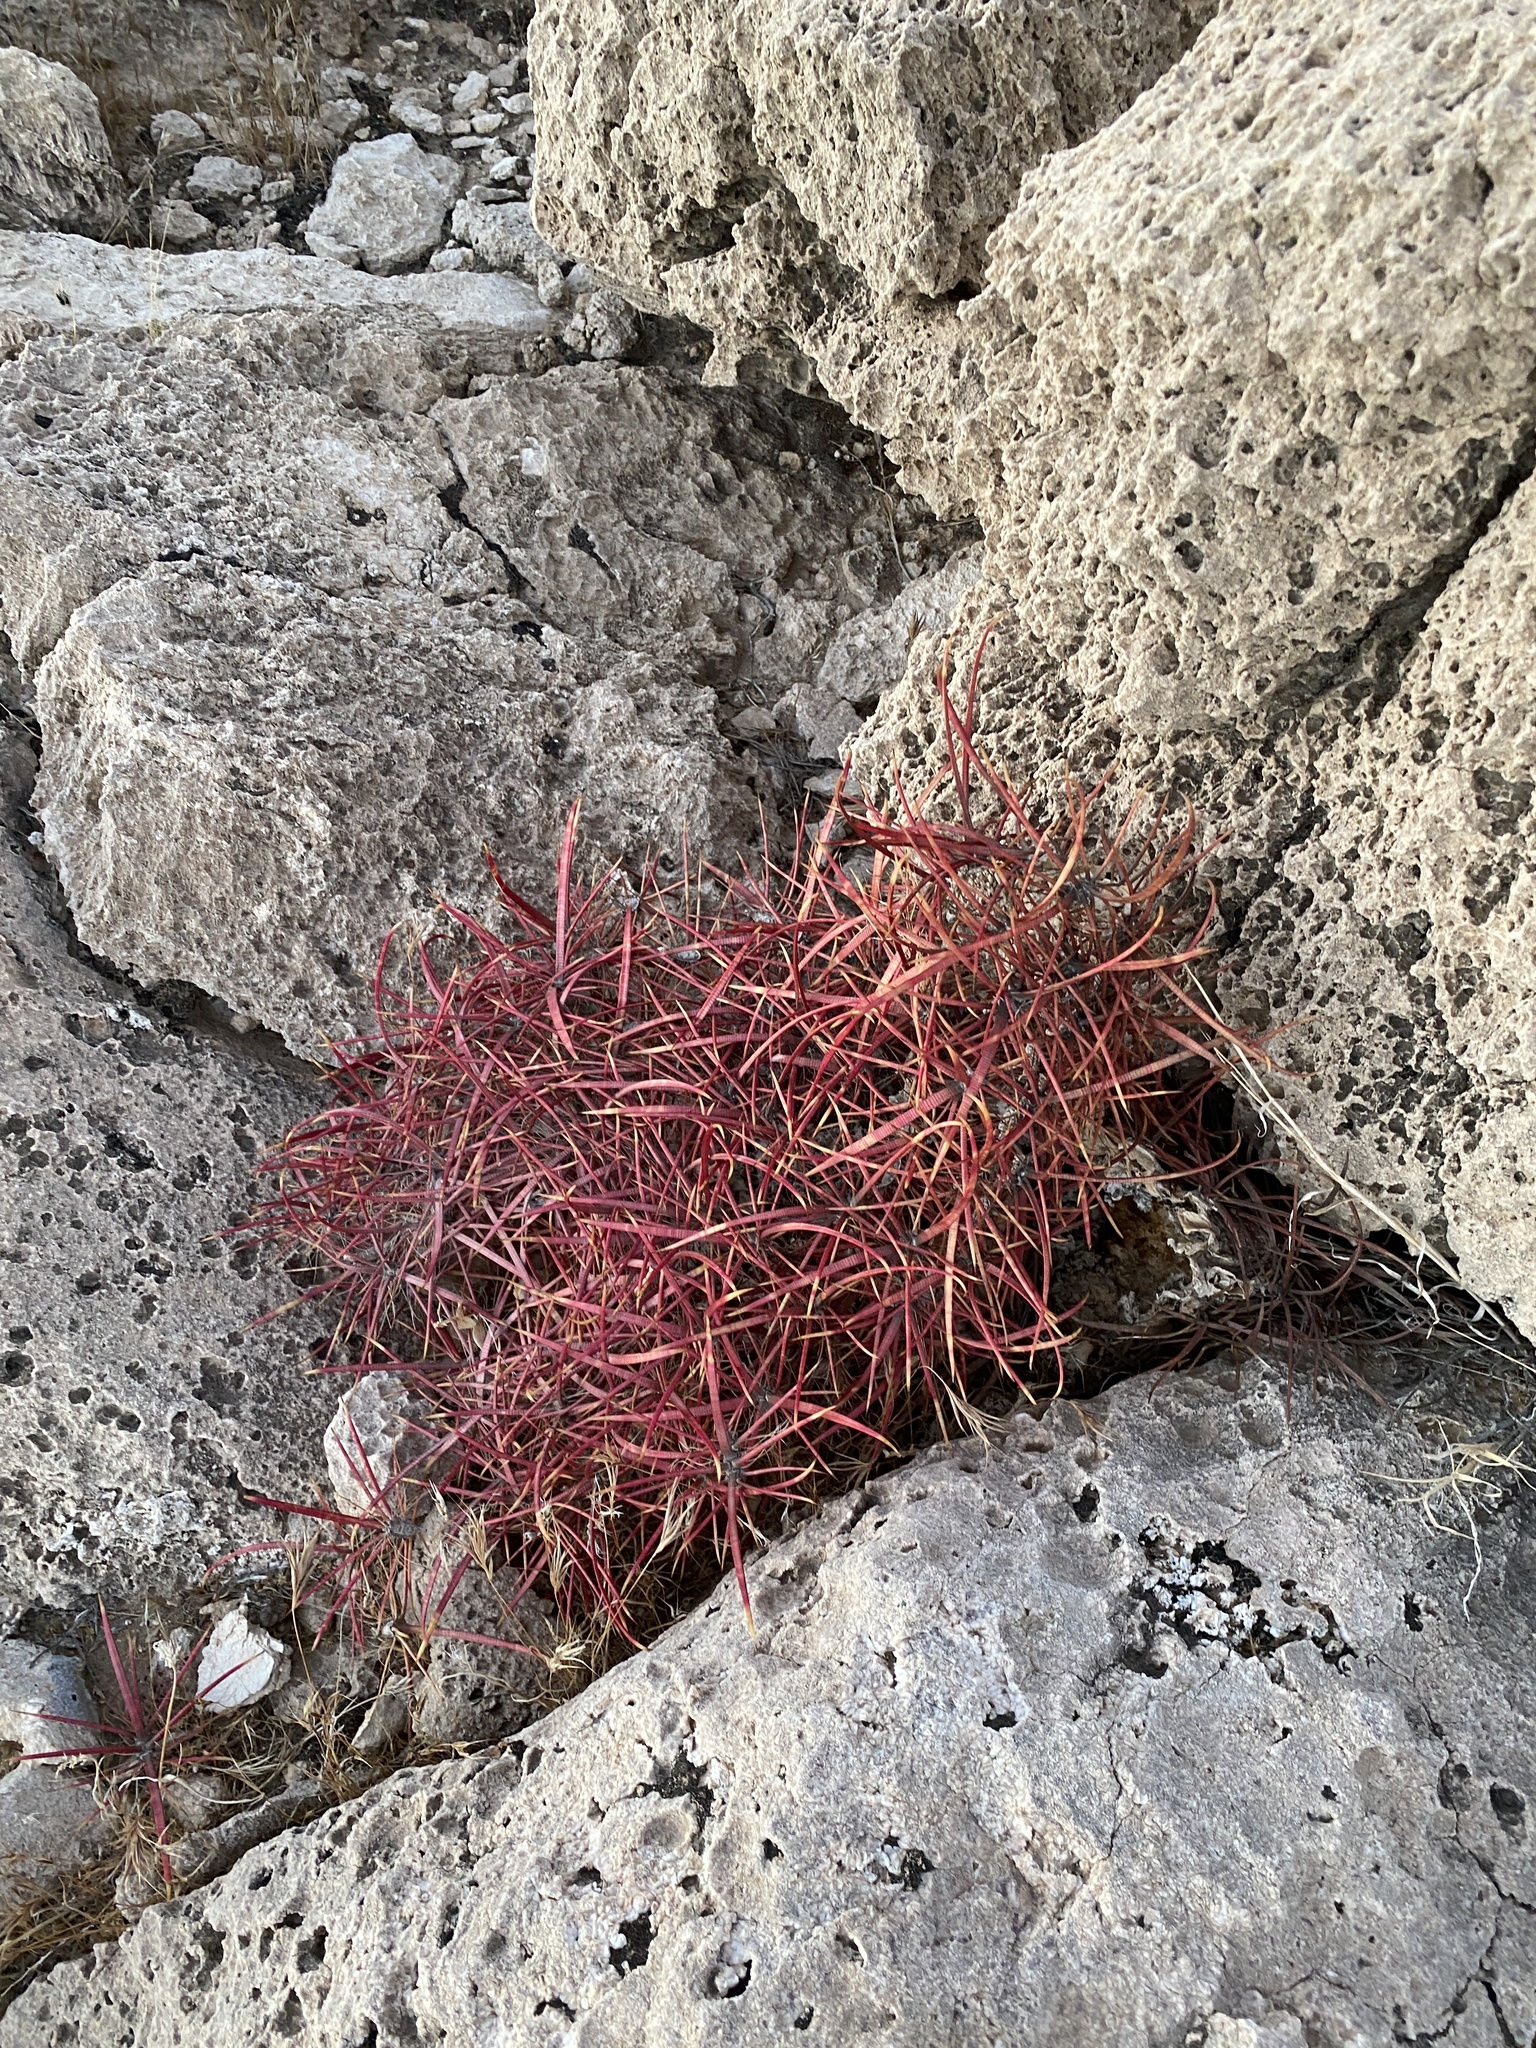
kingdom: Plantae
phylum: Tracheophyta
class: Magnoliopsida
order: Caryophyllales
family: Cactaceae
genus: Ferocactus
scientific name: Ferocactus cylindraceus
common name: California barrel cactus
